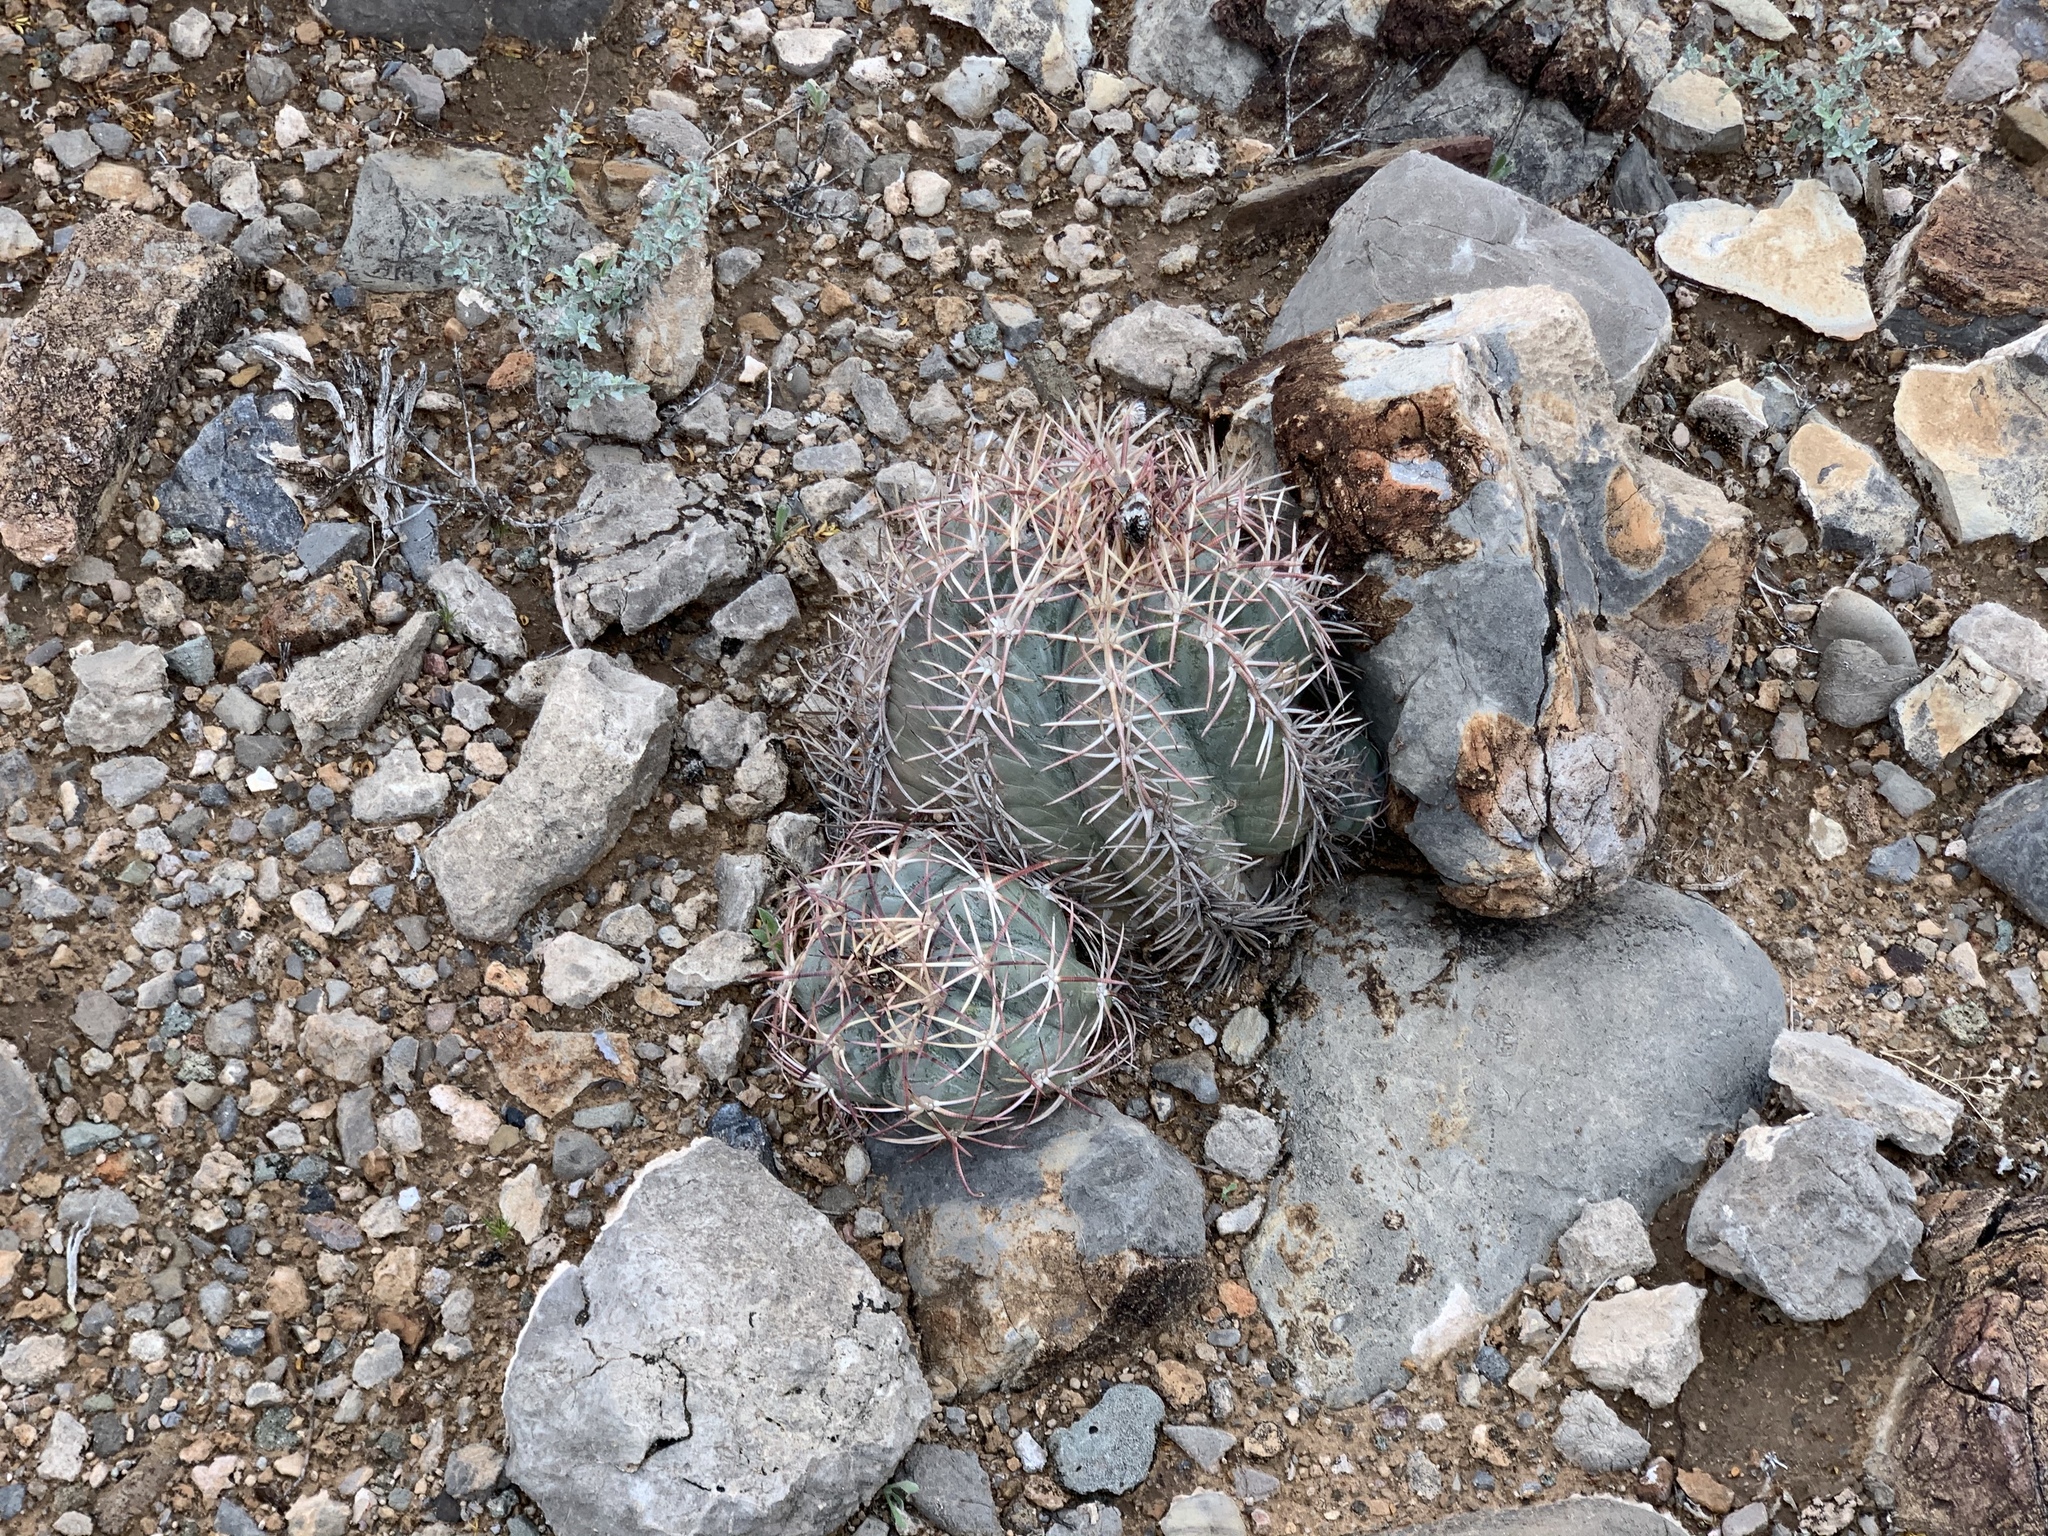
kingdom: Plantae
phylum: Tracheophyta
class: Magnoliopsida
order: Caryophyllales
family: Cactaceae
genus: Echinocactus
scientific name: Echinocactus horizonthalonius
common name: Devilshead
